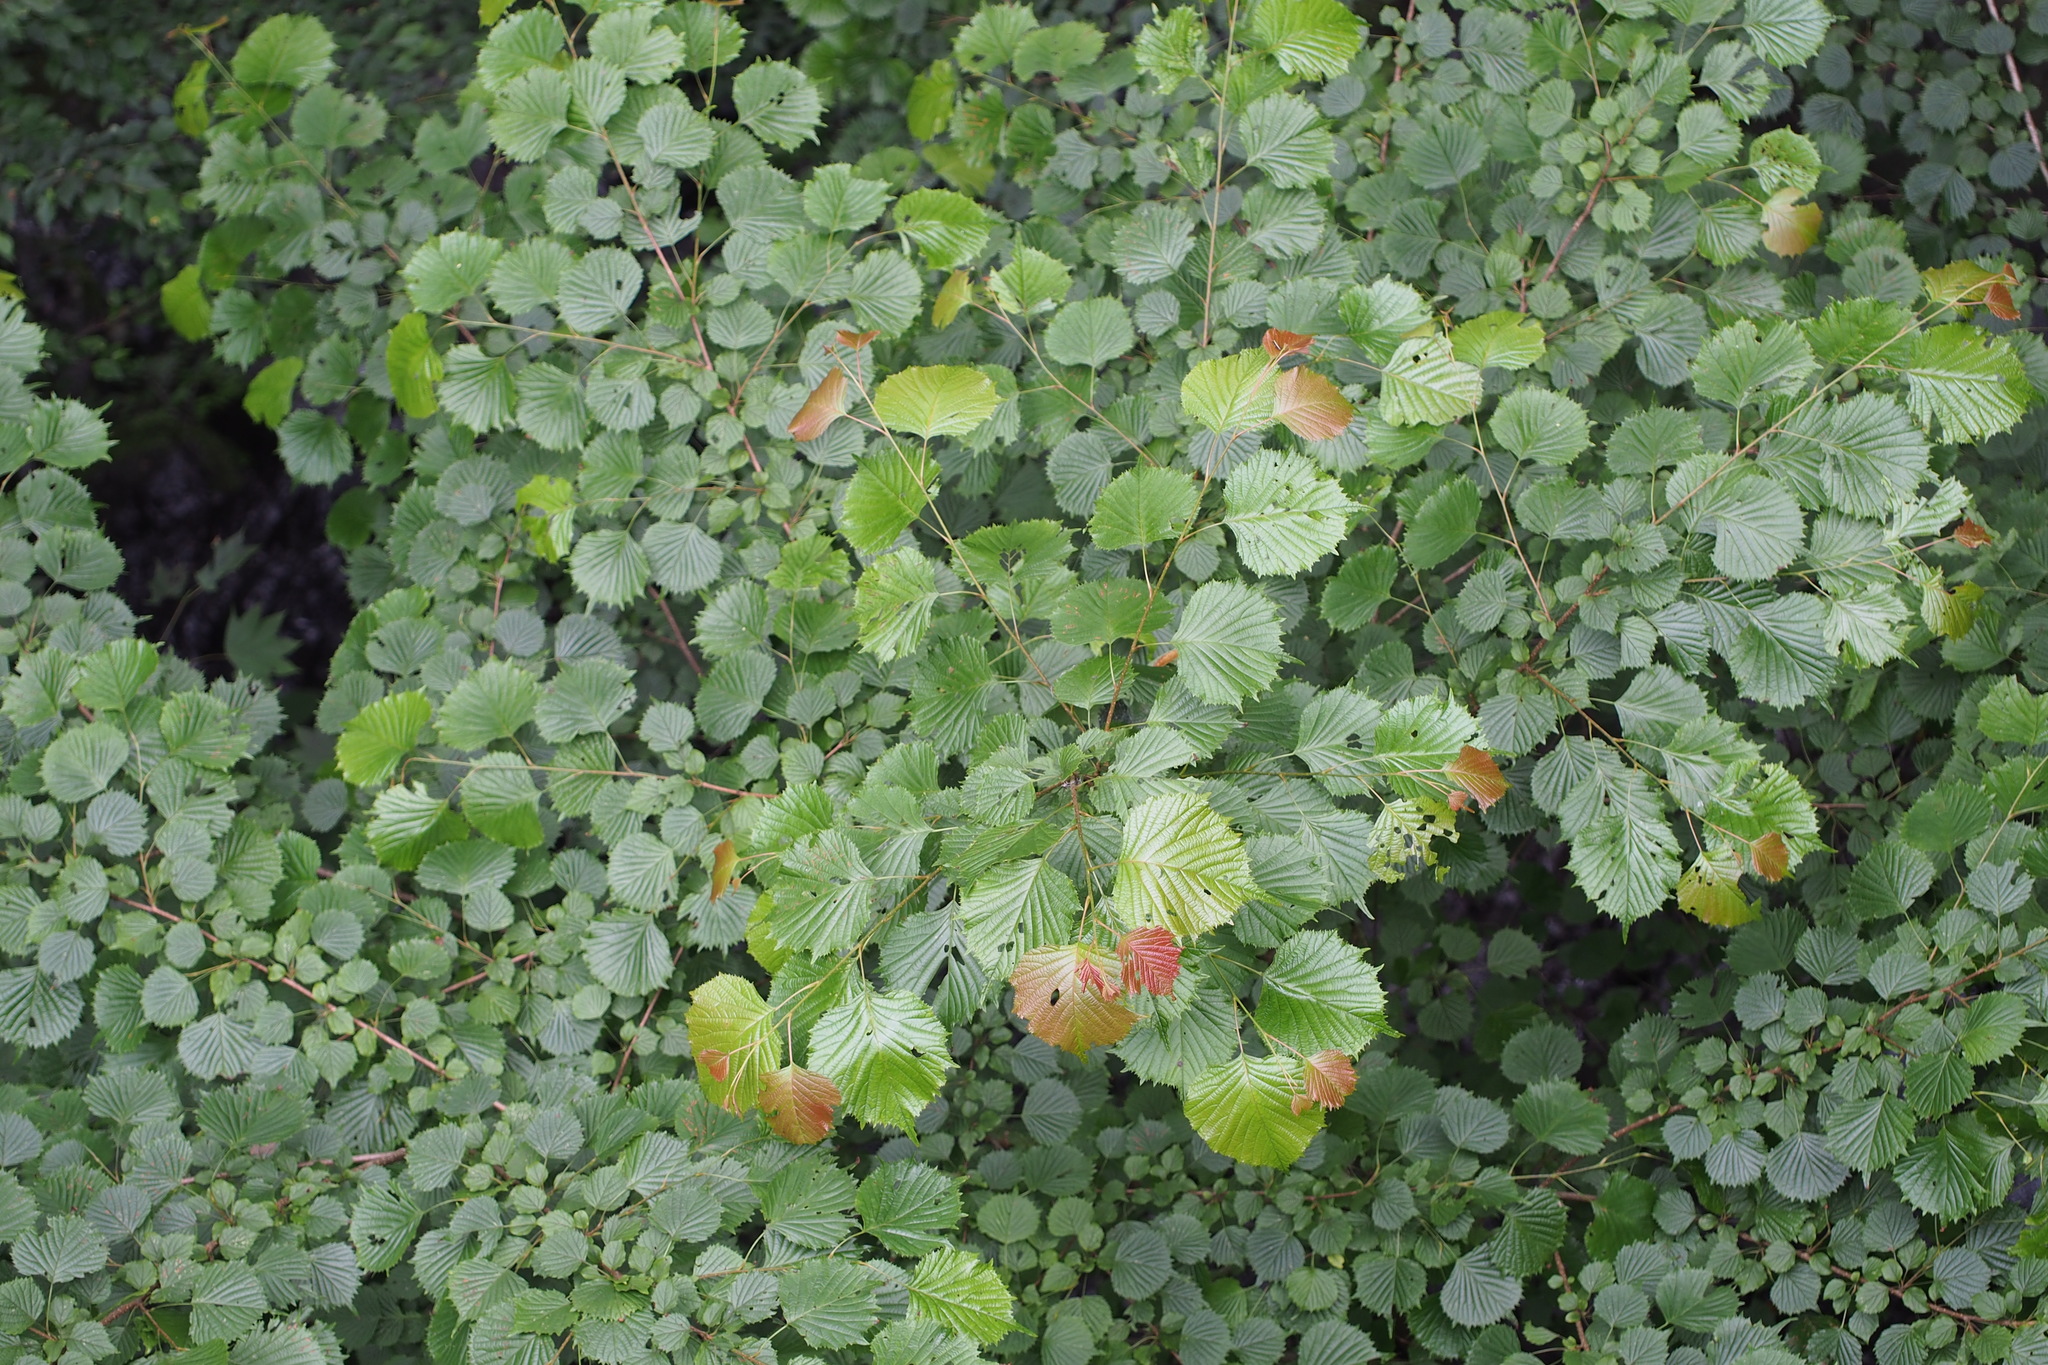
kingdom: Plantae
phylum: Tracheophyta
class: Magnoliopsida
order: Ranunculales
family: Eupteleaceae
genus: Euptelea
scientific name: Euptelea polyandra
